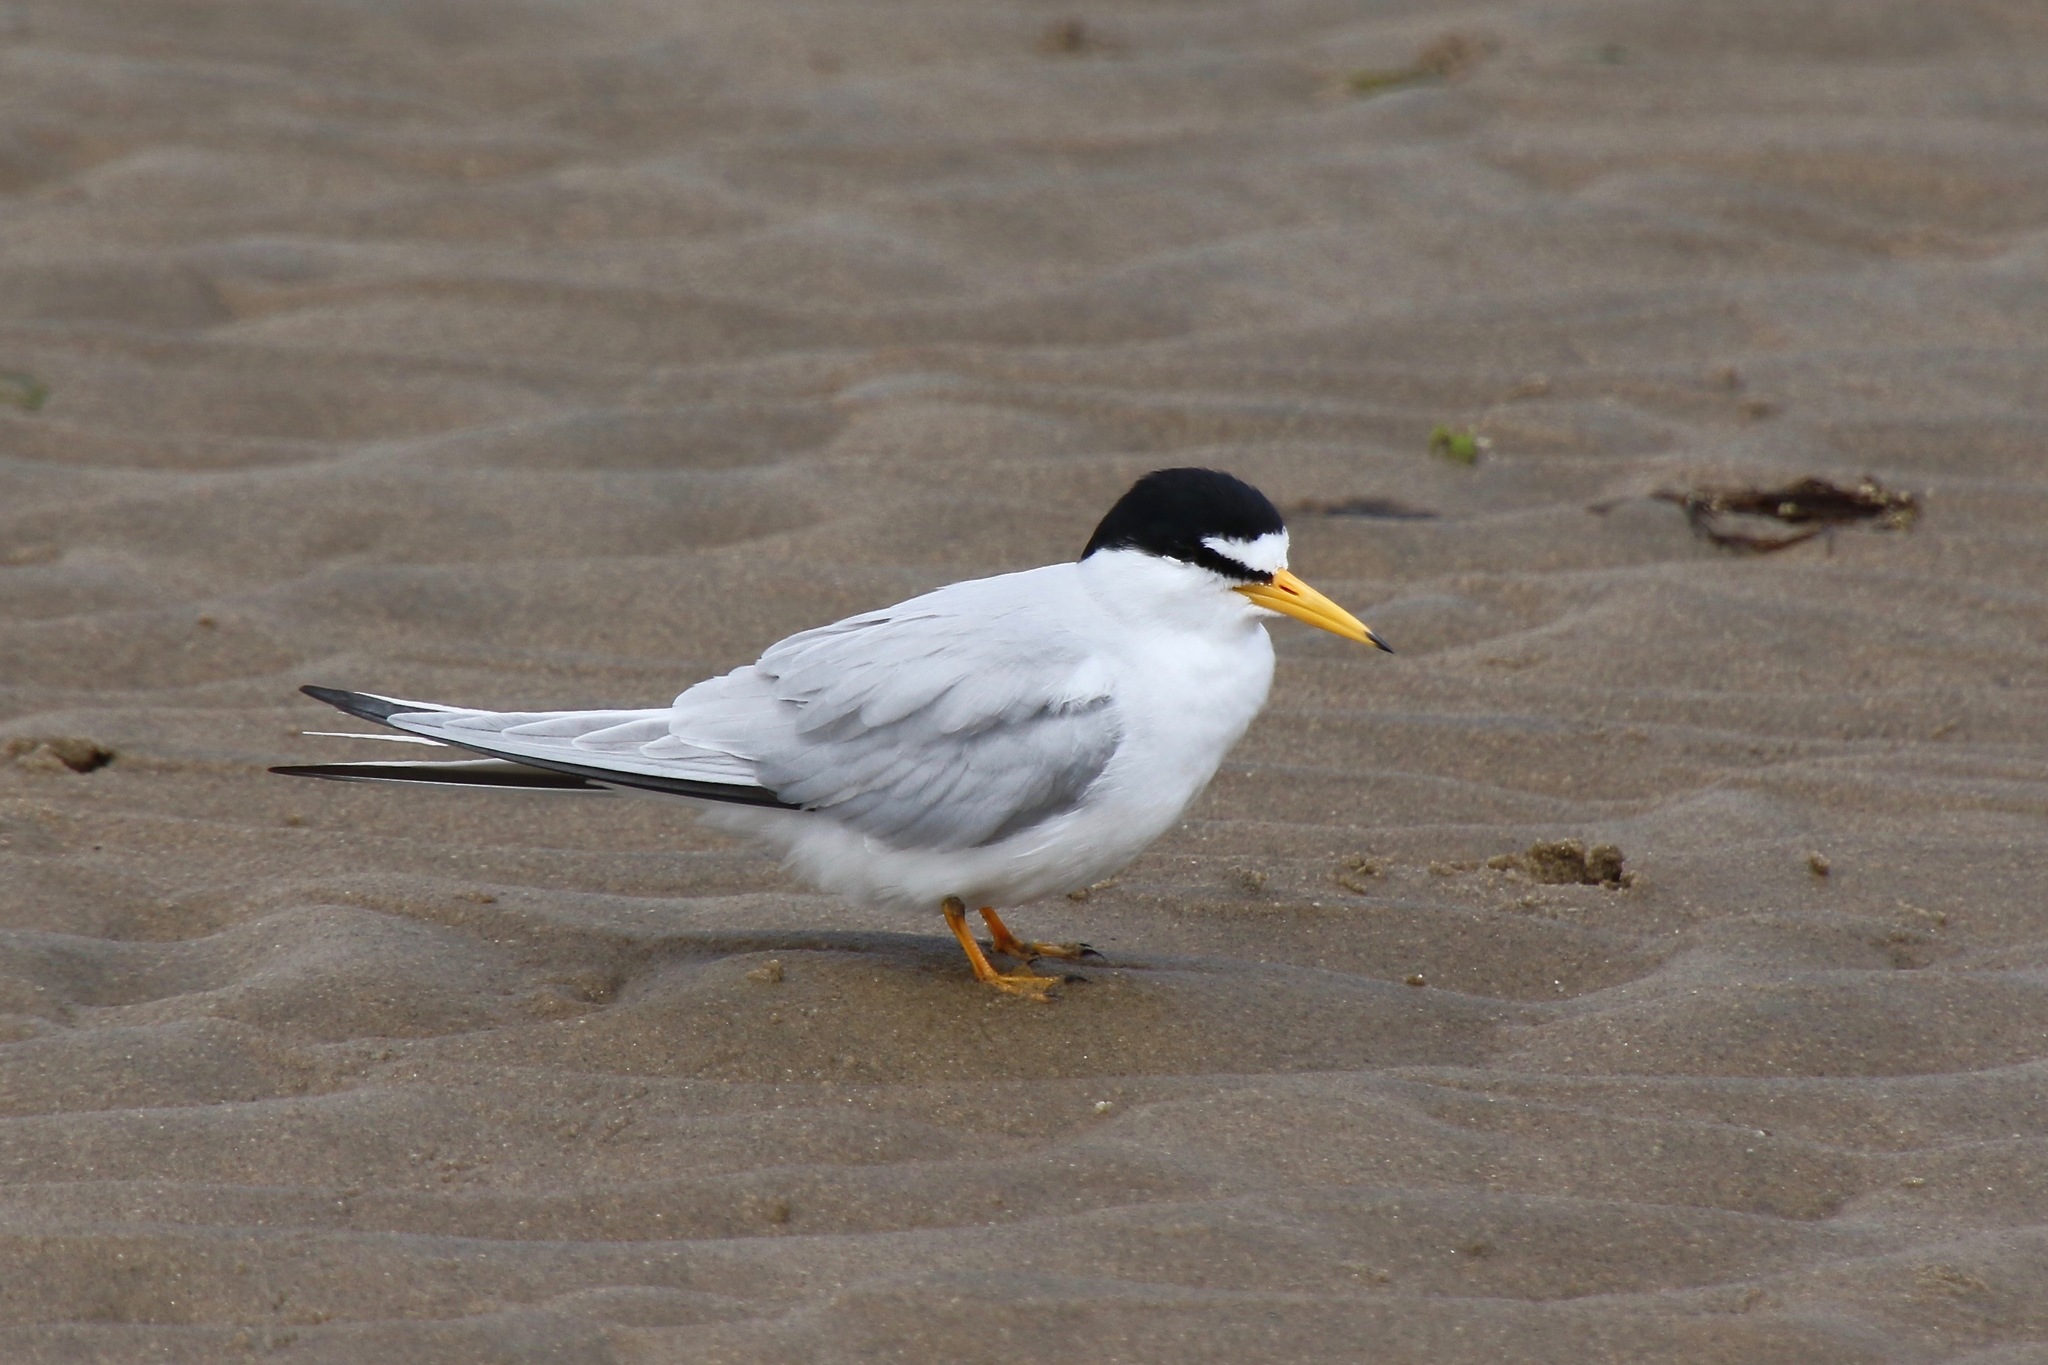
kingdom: Animalia
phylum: Chordata
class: Aves
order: Charadriiformes
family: Laridae
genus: Sternula
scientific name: Sternula antillarum
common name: Least tern
